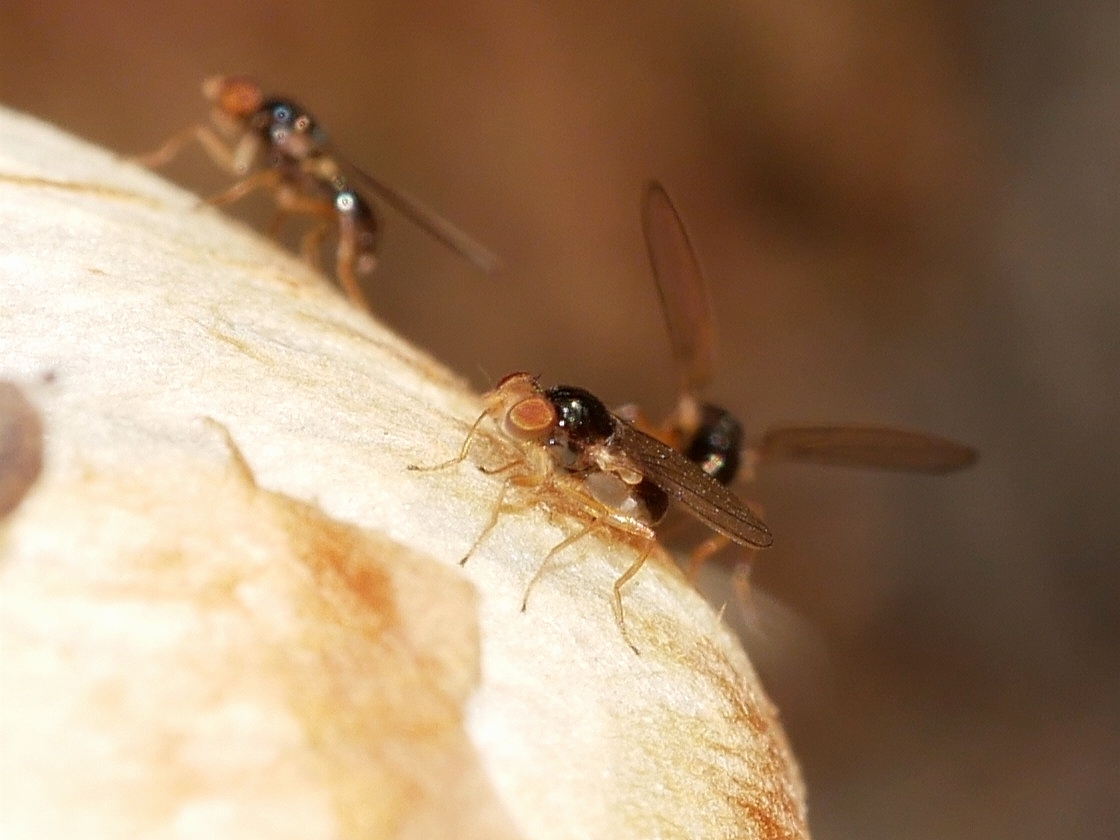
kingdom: Animalia
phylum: Arthropoda
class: Insecta
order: Diptera
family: Asteiidae
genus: Leiomyza
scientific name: Leiomyza curvinervis
